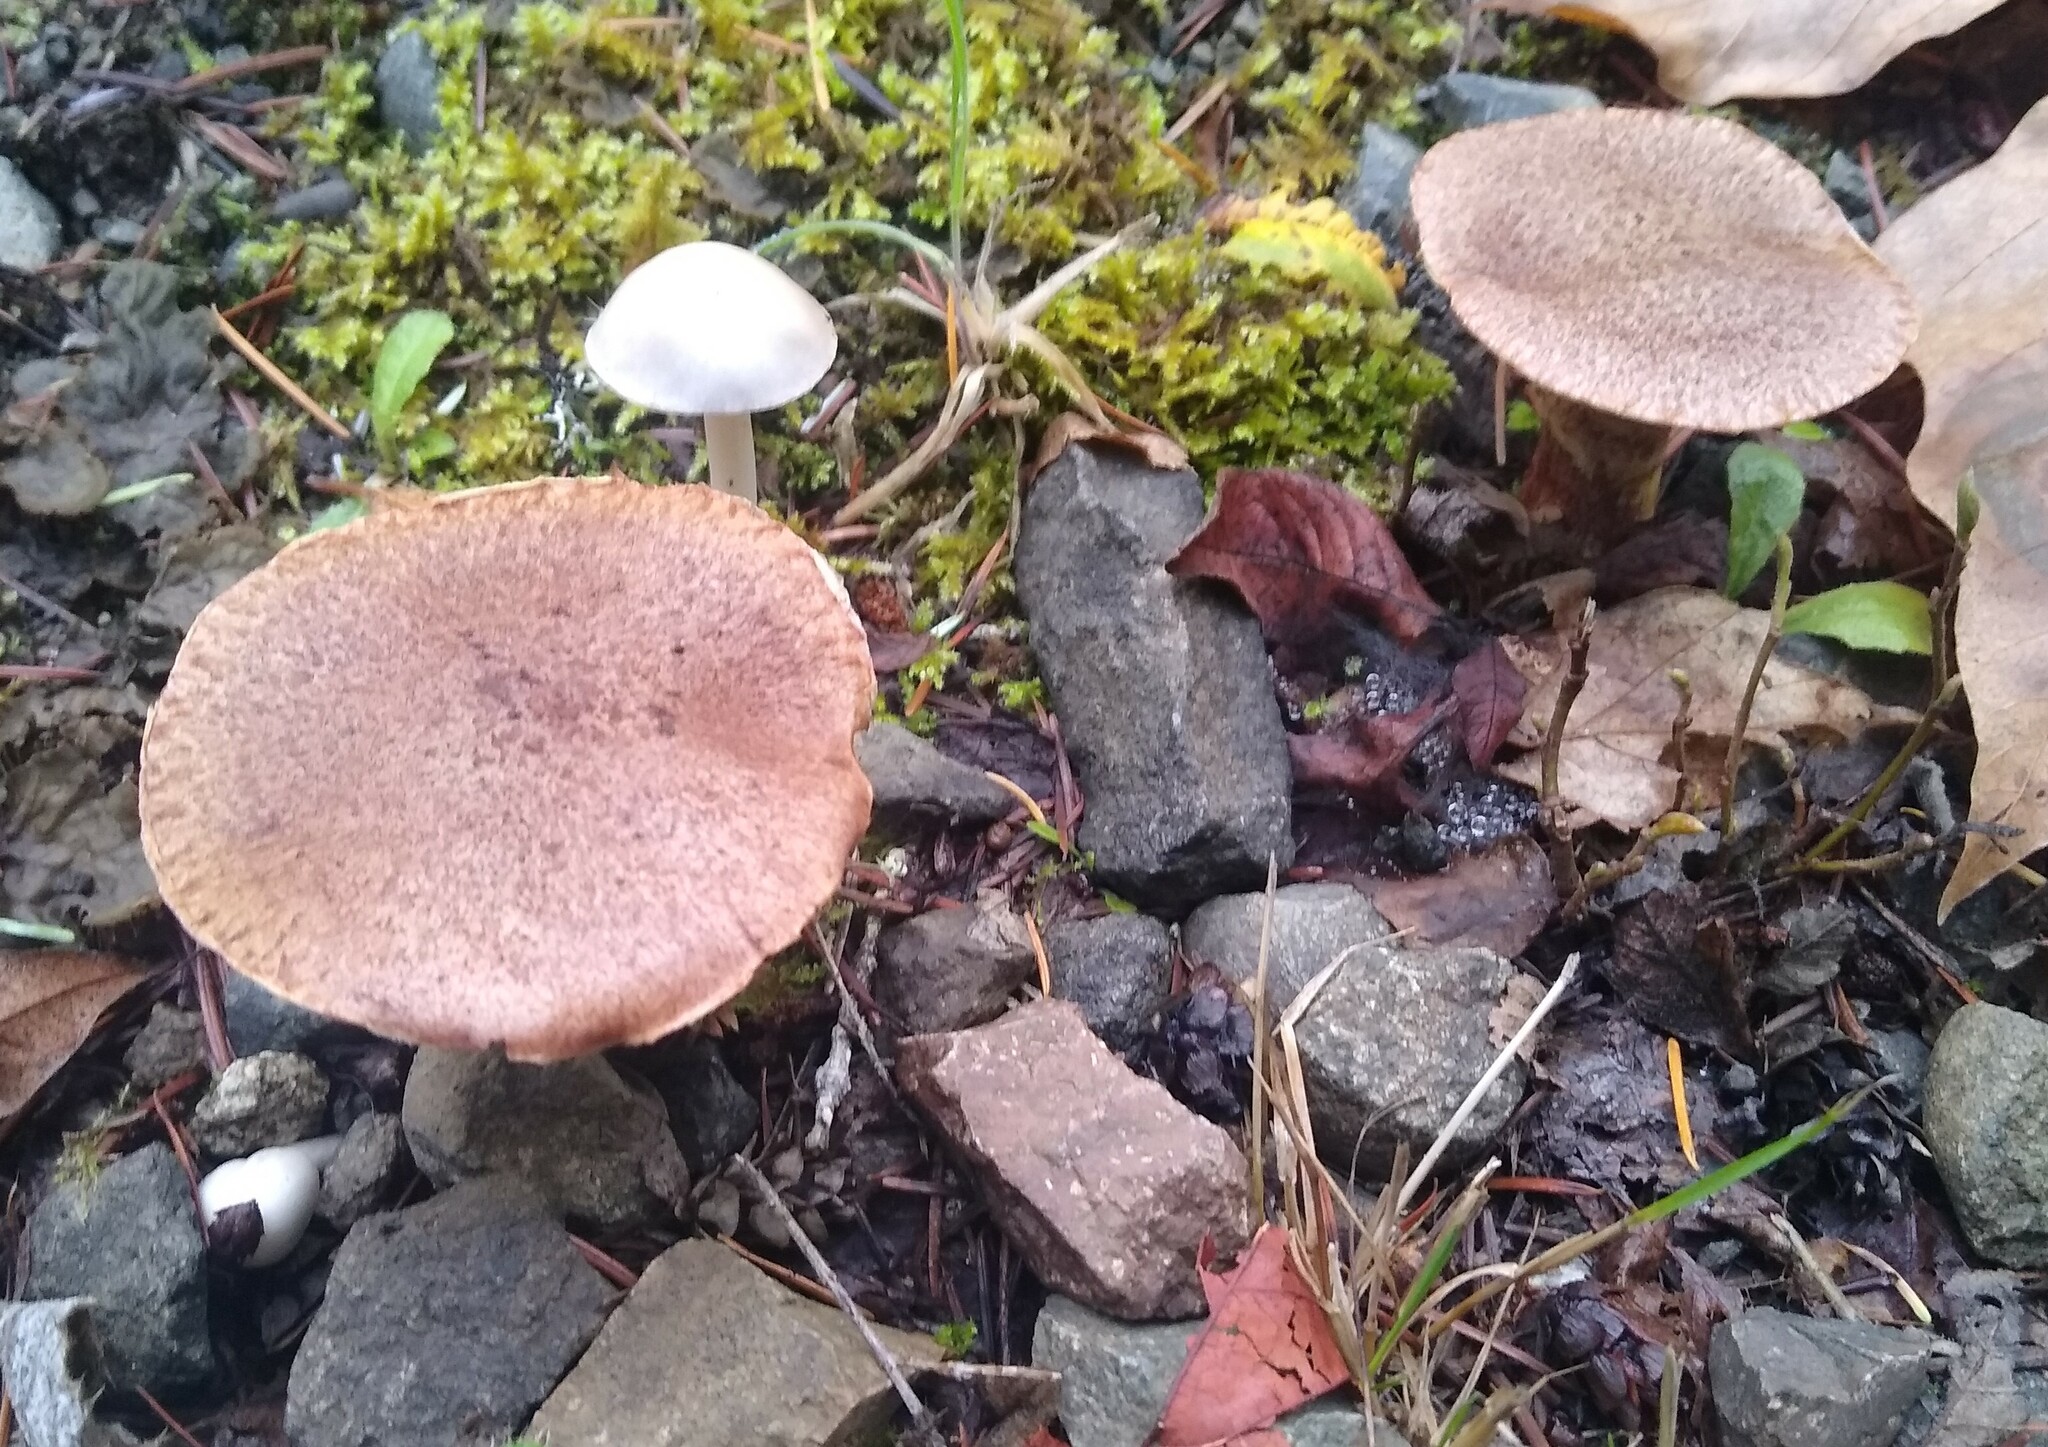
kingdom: Fungi
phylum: Basidiomycota
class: Agaricomycetes
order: Boletales
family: Suillaceae
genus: Suillus
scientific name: Suillus caerulescens
